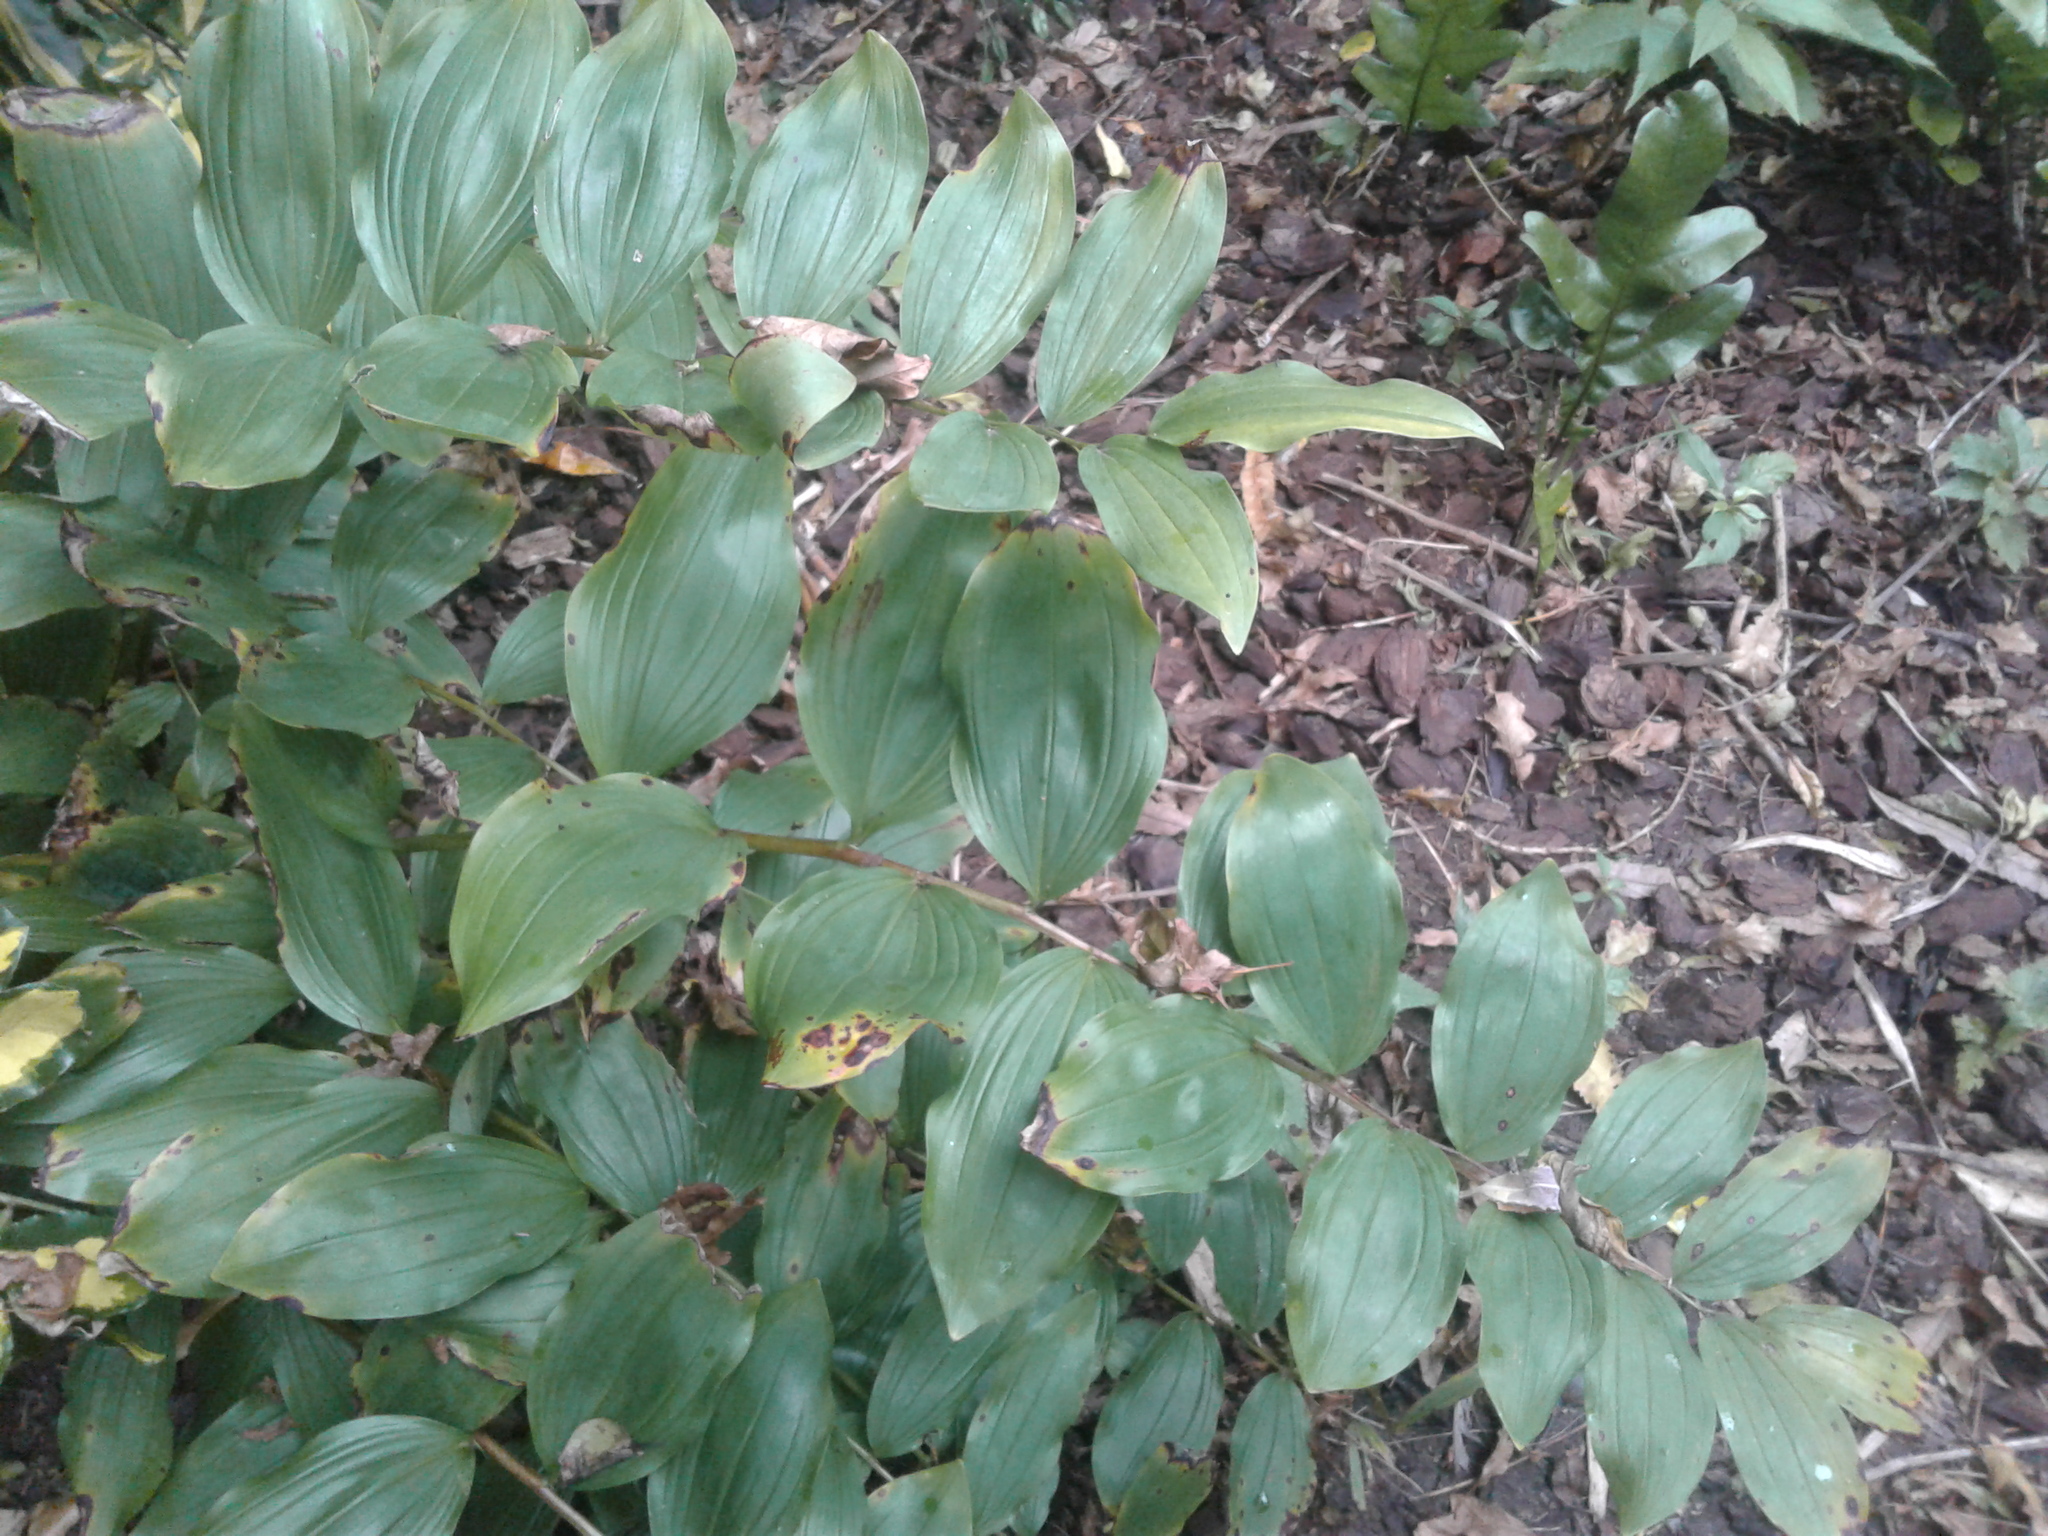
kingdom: Plantae
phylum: Tracheophyta
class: Liliopsida
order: Asparagales
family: Asparagaceae
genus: Polygonatum
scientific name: Polygonatum multiflorum
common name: Solomon's-seal
